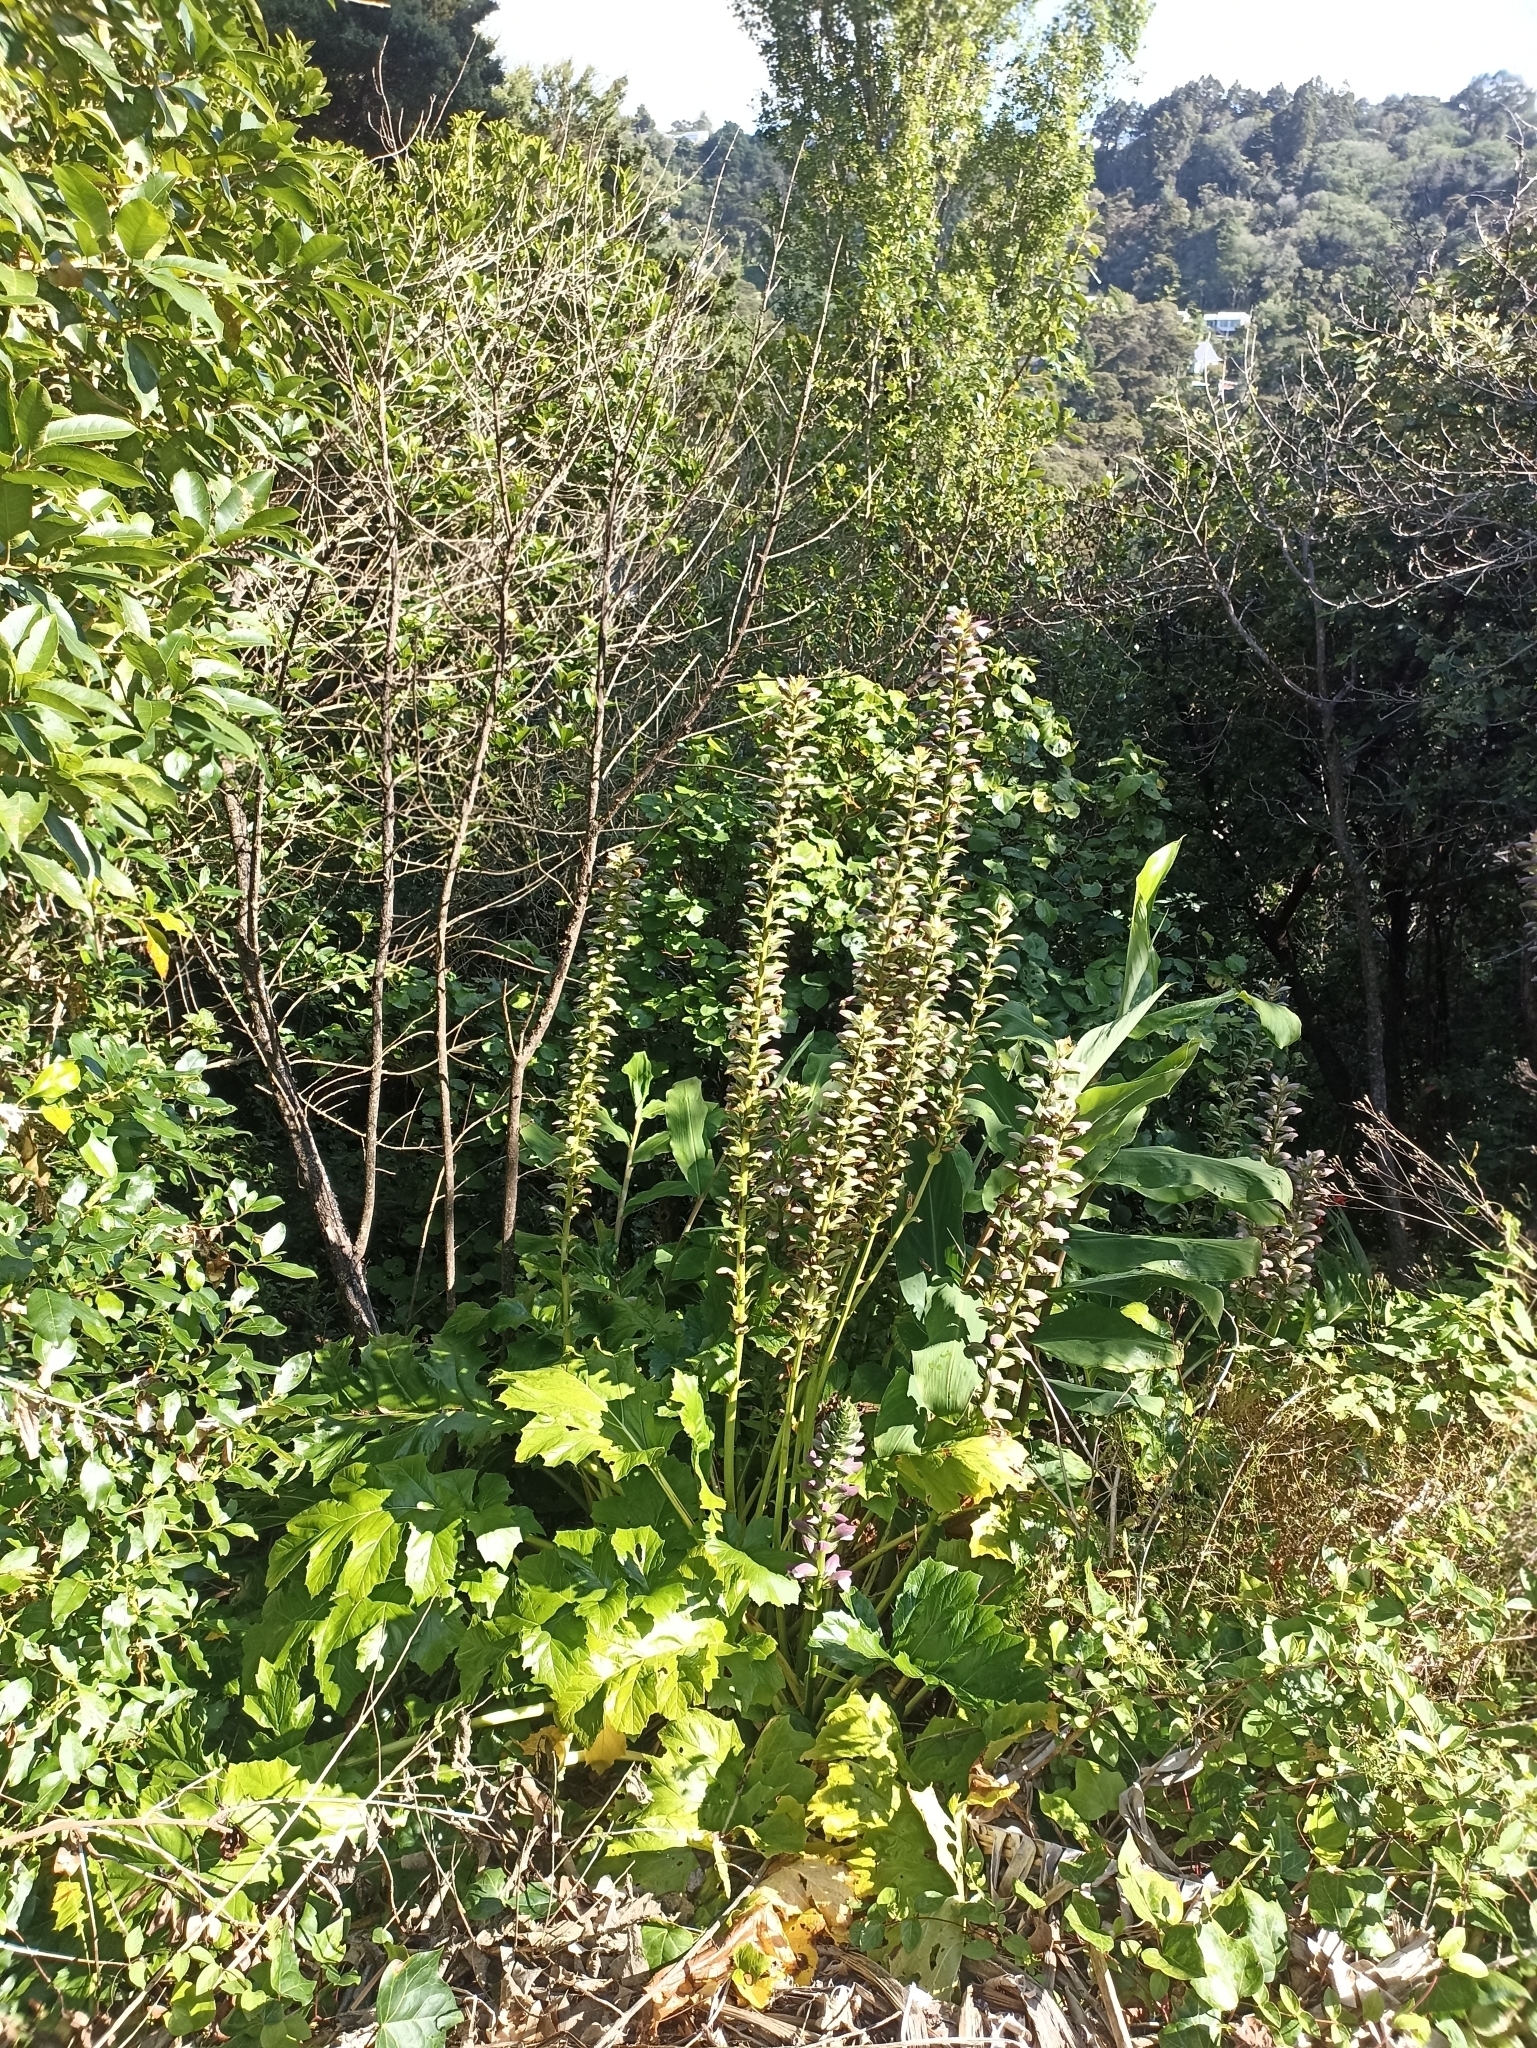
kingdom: Plantae
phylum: Tracheophyta
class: Magnoliopsida
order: Lamiales
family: Acanthaceae
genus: Acanthus
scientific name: Acanthus mollis
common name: Bear's-breech
